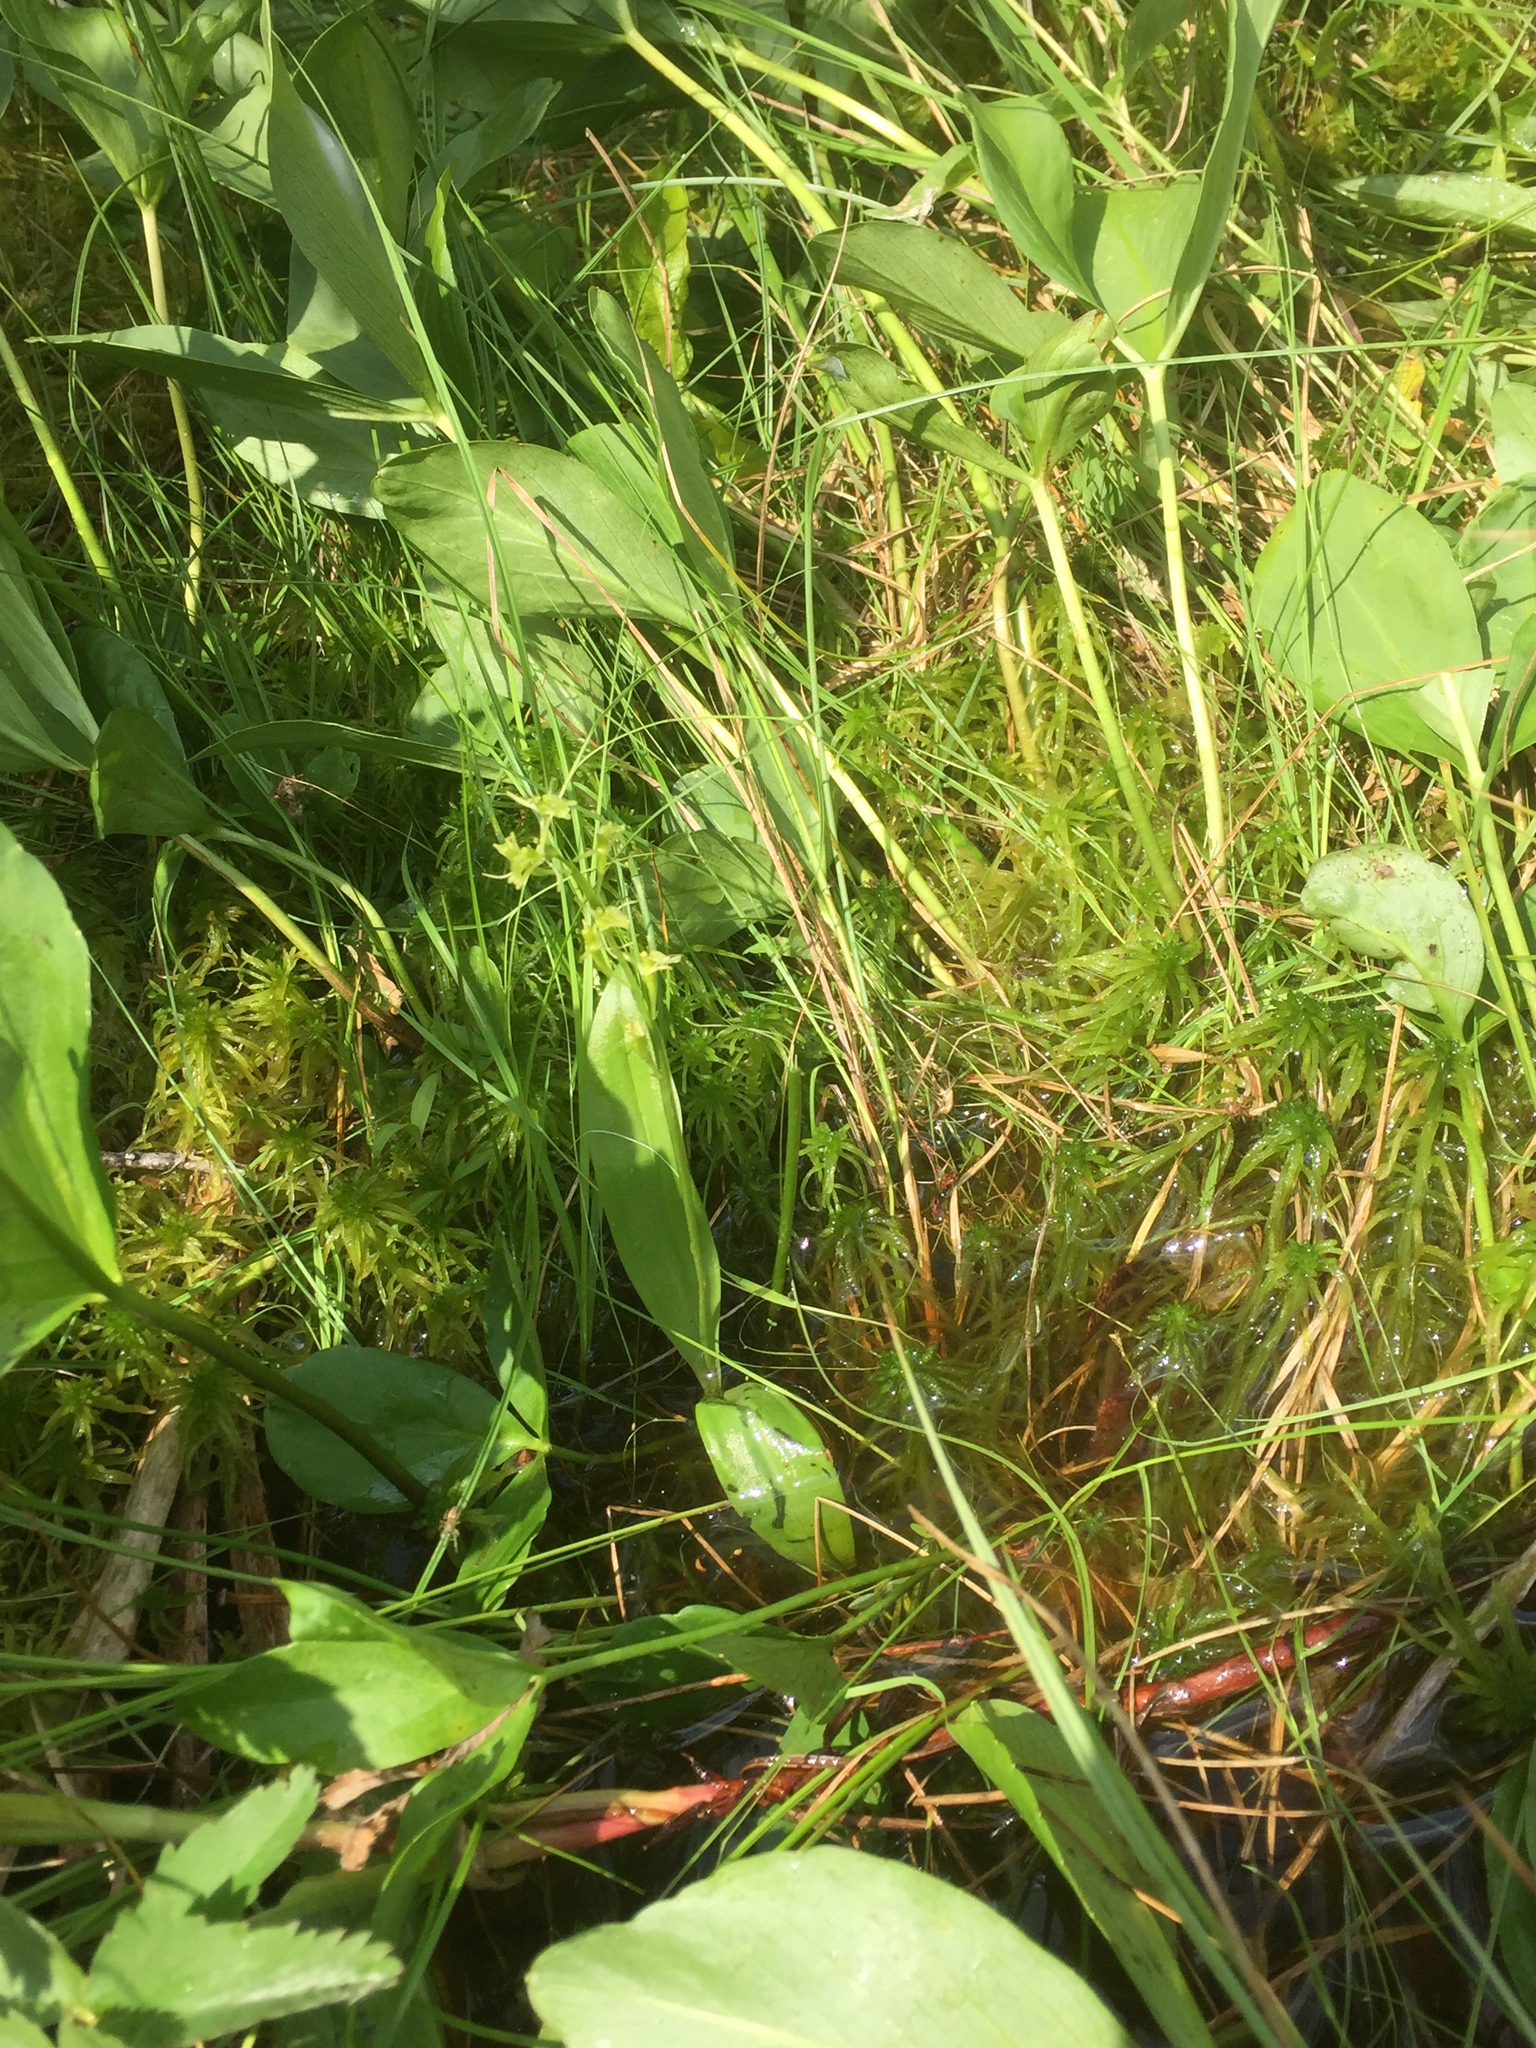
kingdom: Animalia
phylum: Arthropoda
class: Insecta
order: Coleoptera
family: Curculionidae
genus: Liparis
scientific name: Liparis loeselii
